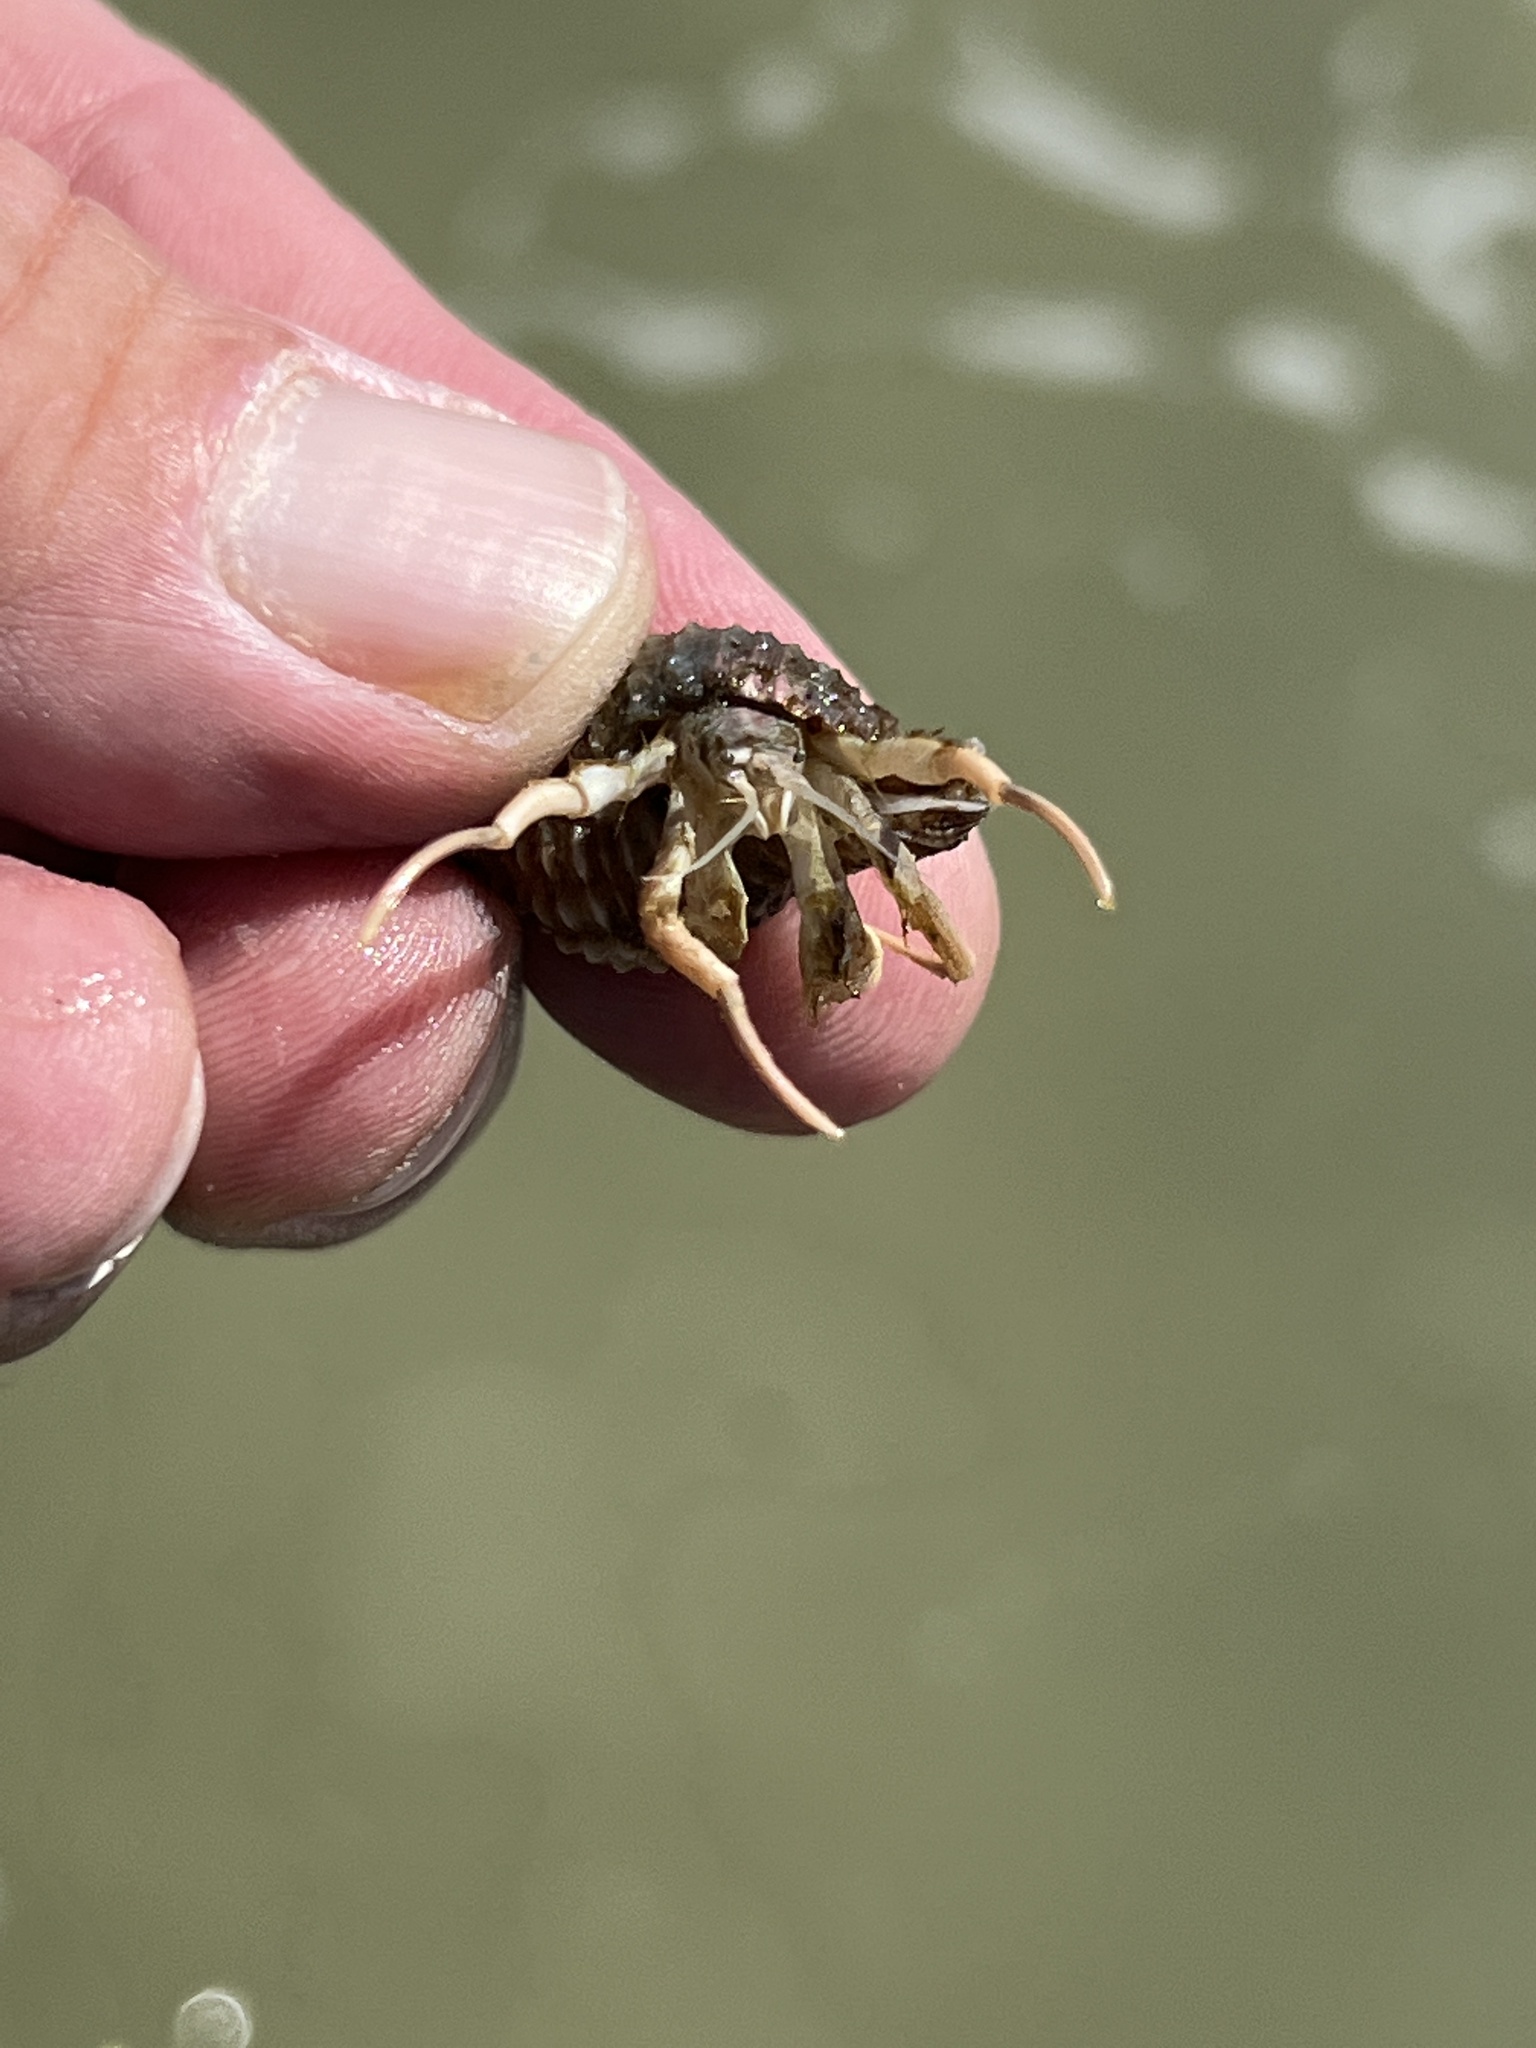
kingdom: Animalia
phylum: Arthropoda
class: Malacostraca
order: Decapoda
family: Diogenidae
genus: Isocheles
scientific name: Isocheles wurdemanni
